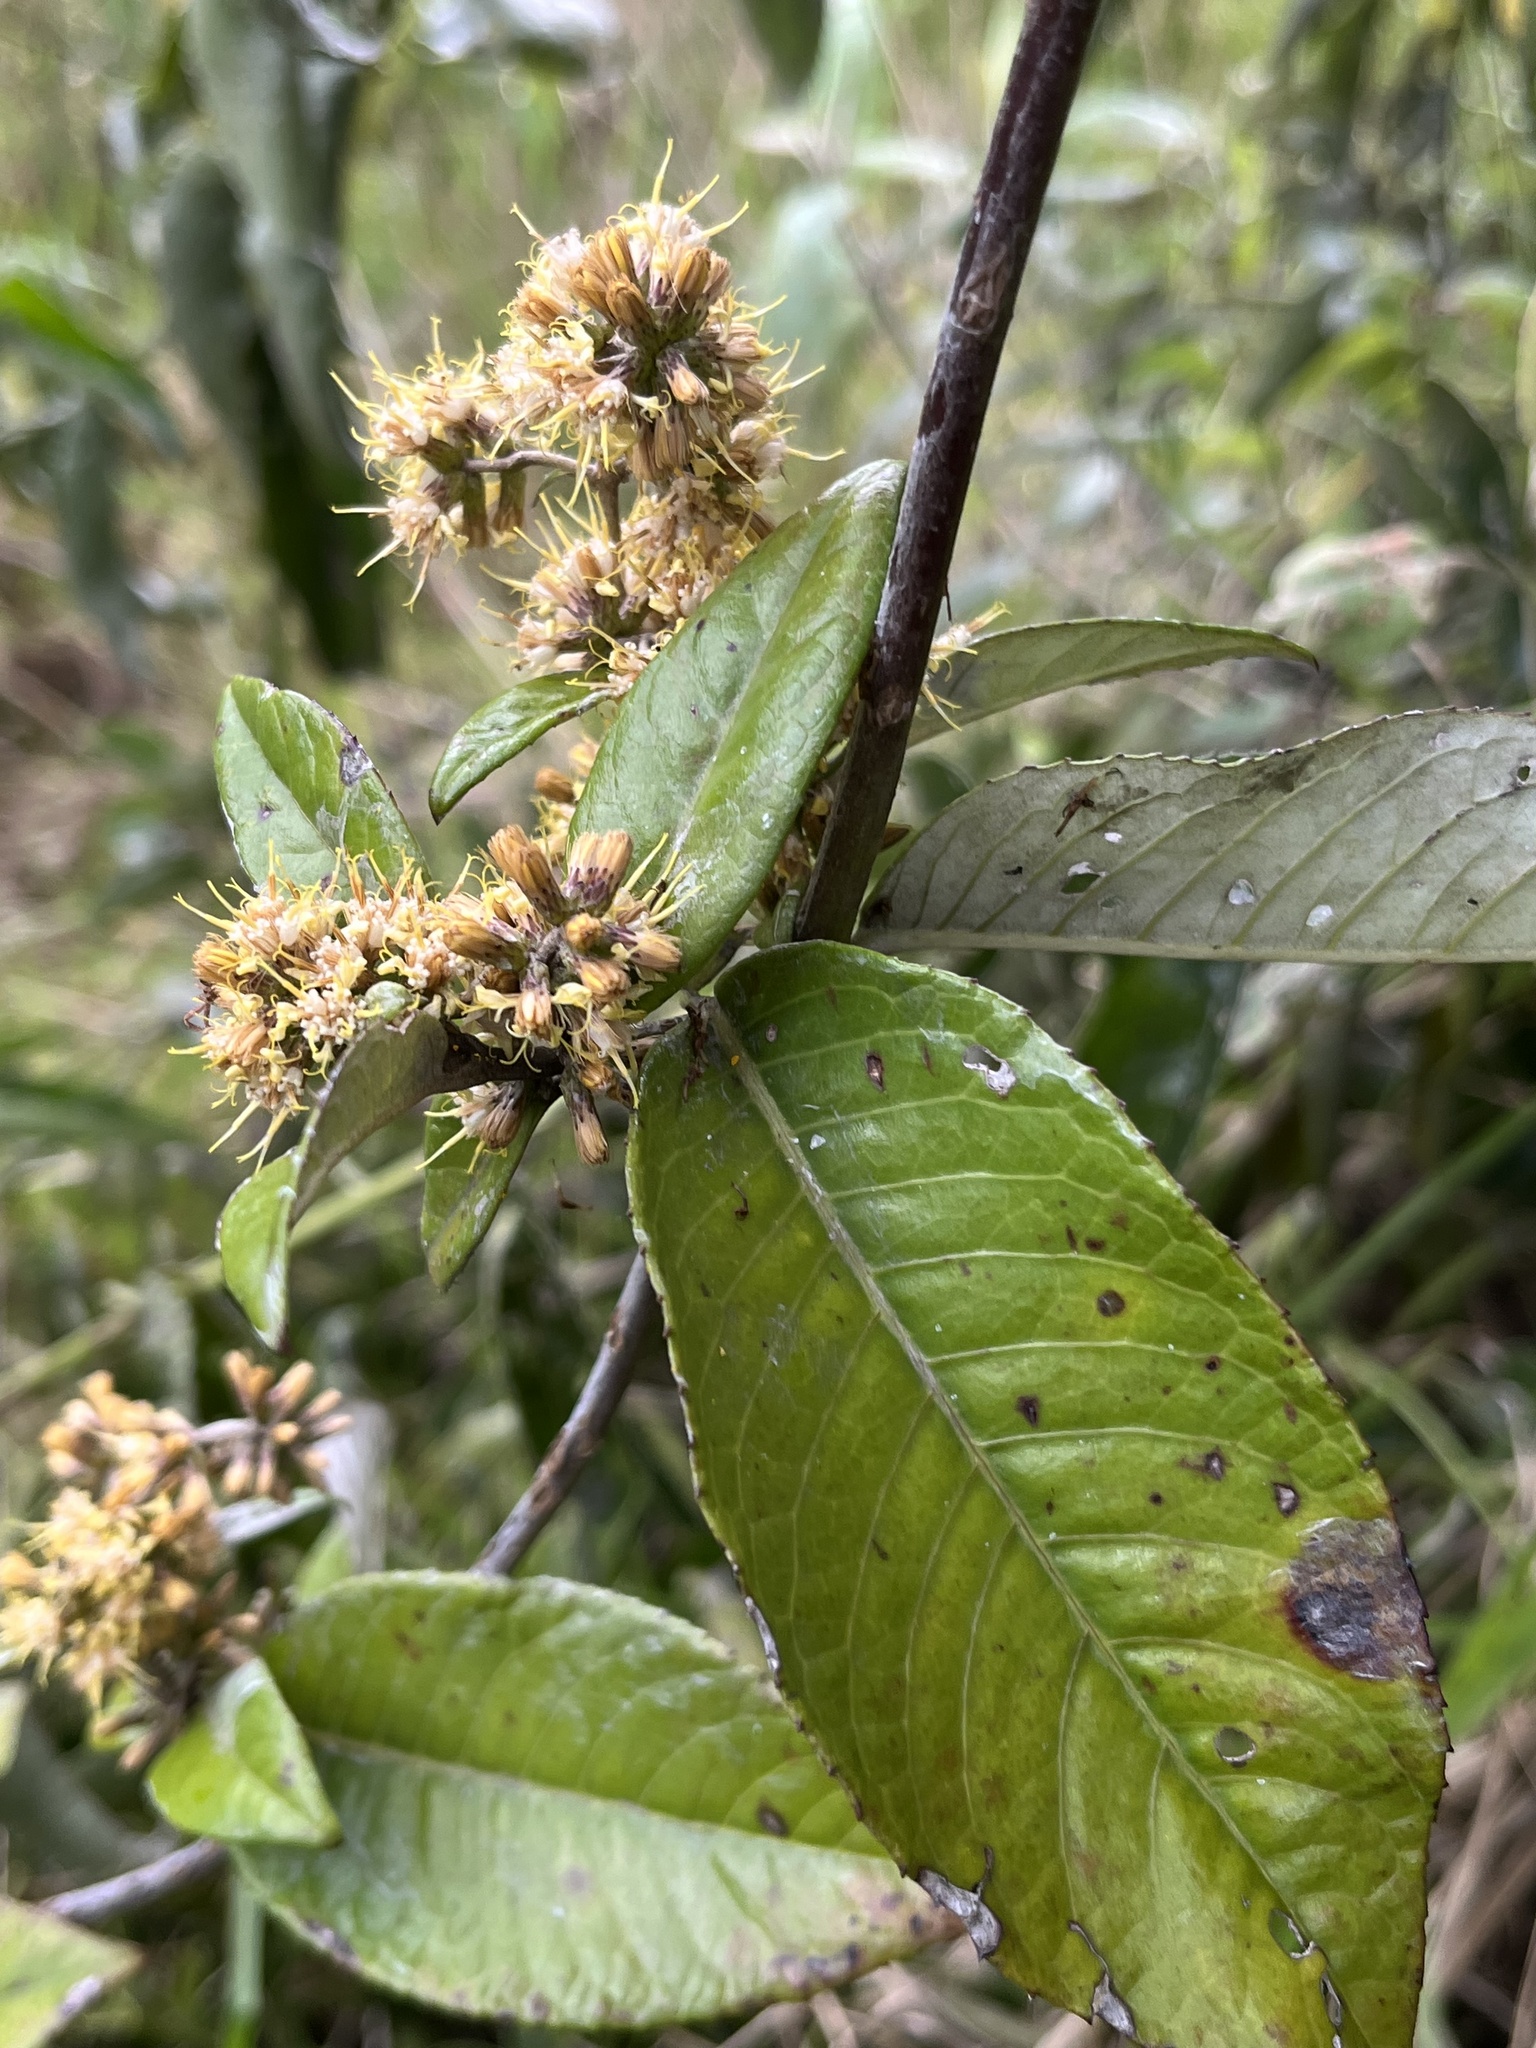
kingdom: Plantae
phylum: Tracheophyta
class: Magnoliopsida
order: Asterales
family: Asteraceae
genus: Oligactis
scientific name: Oligactis sessiliflora
